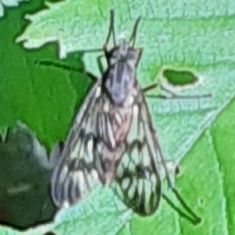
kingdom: Animalia
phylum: Arthropoda
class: Insecta
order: Diptera
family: Rhagionidae
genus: Rhagio
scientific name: Rhagio mystaceus
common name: Common snipe fly
